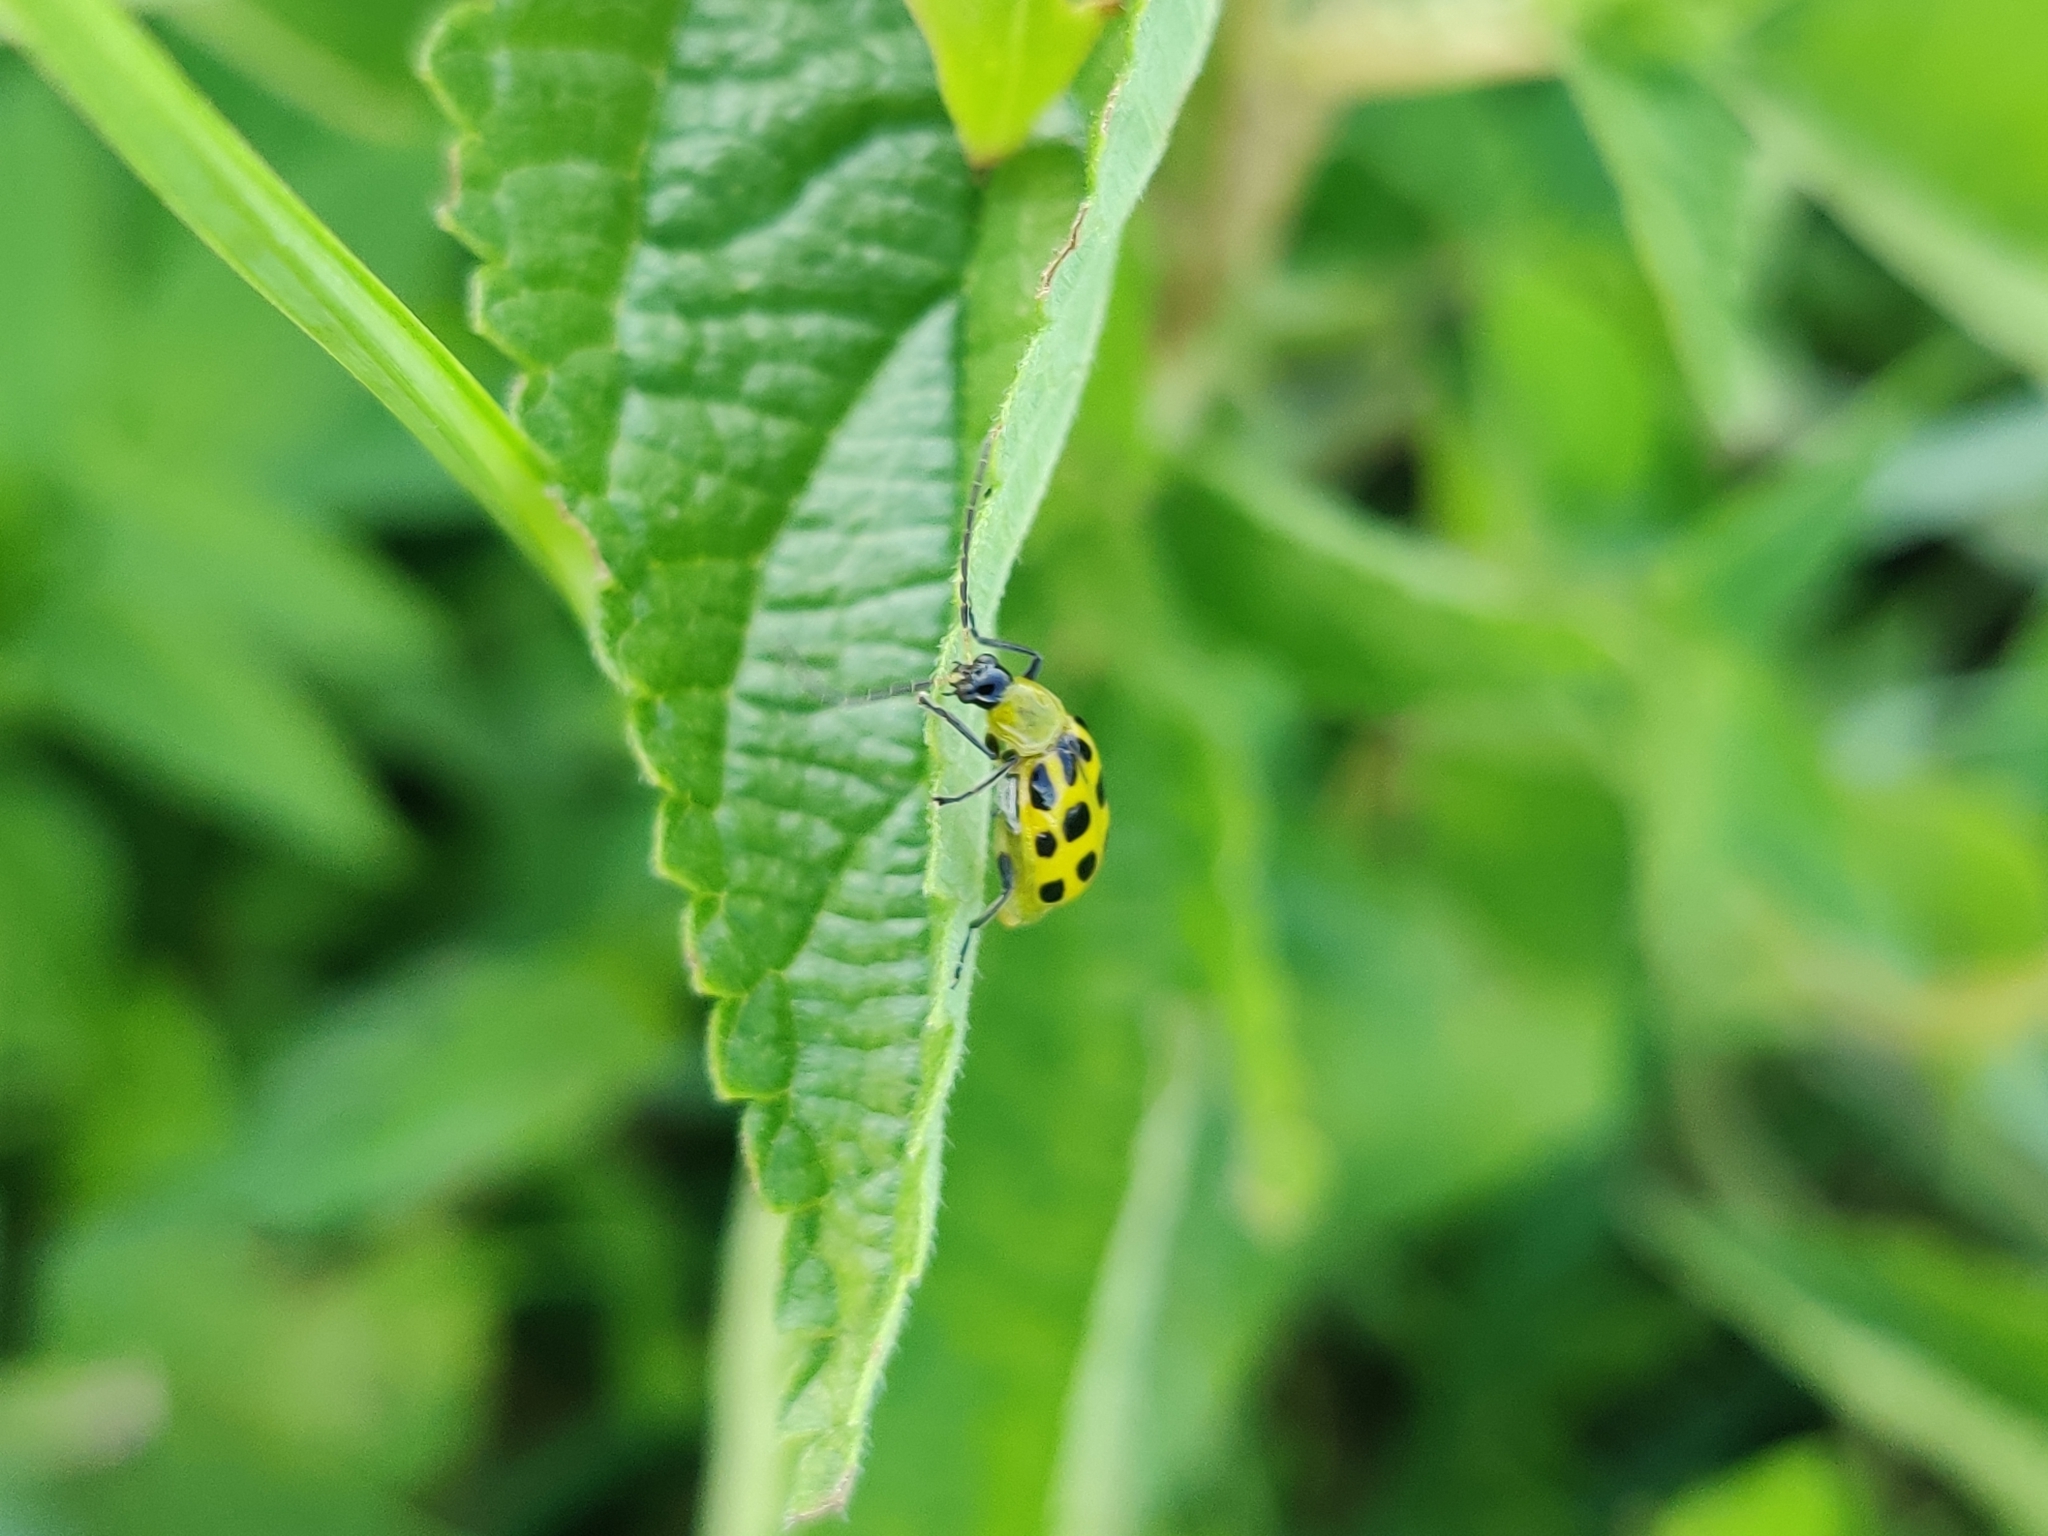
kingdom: Animalia
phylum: Arthropoda
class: Insecta
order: Coleoptera
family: Chrysomelidae
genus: Diabrotica
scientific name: Diabrotica undecimpunctata
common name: Spotted cucumber beetle
